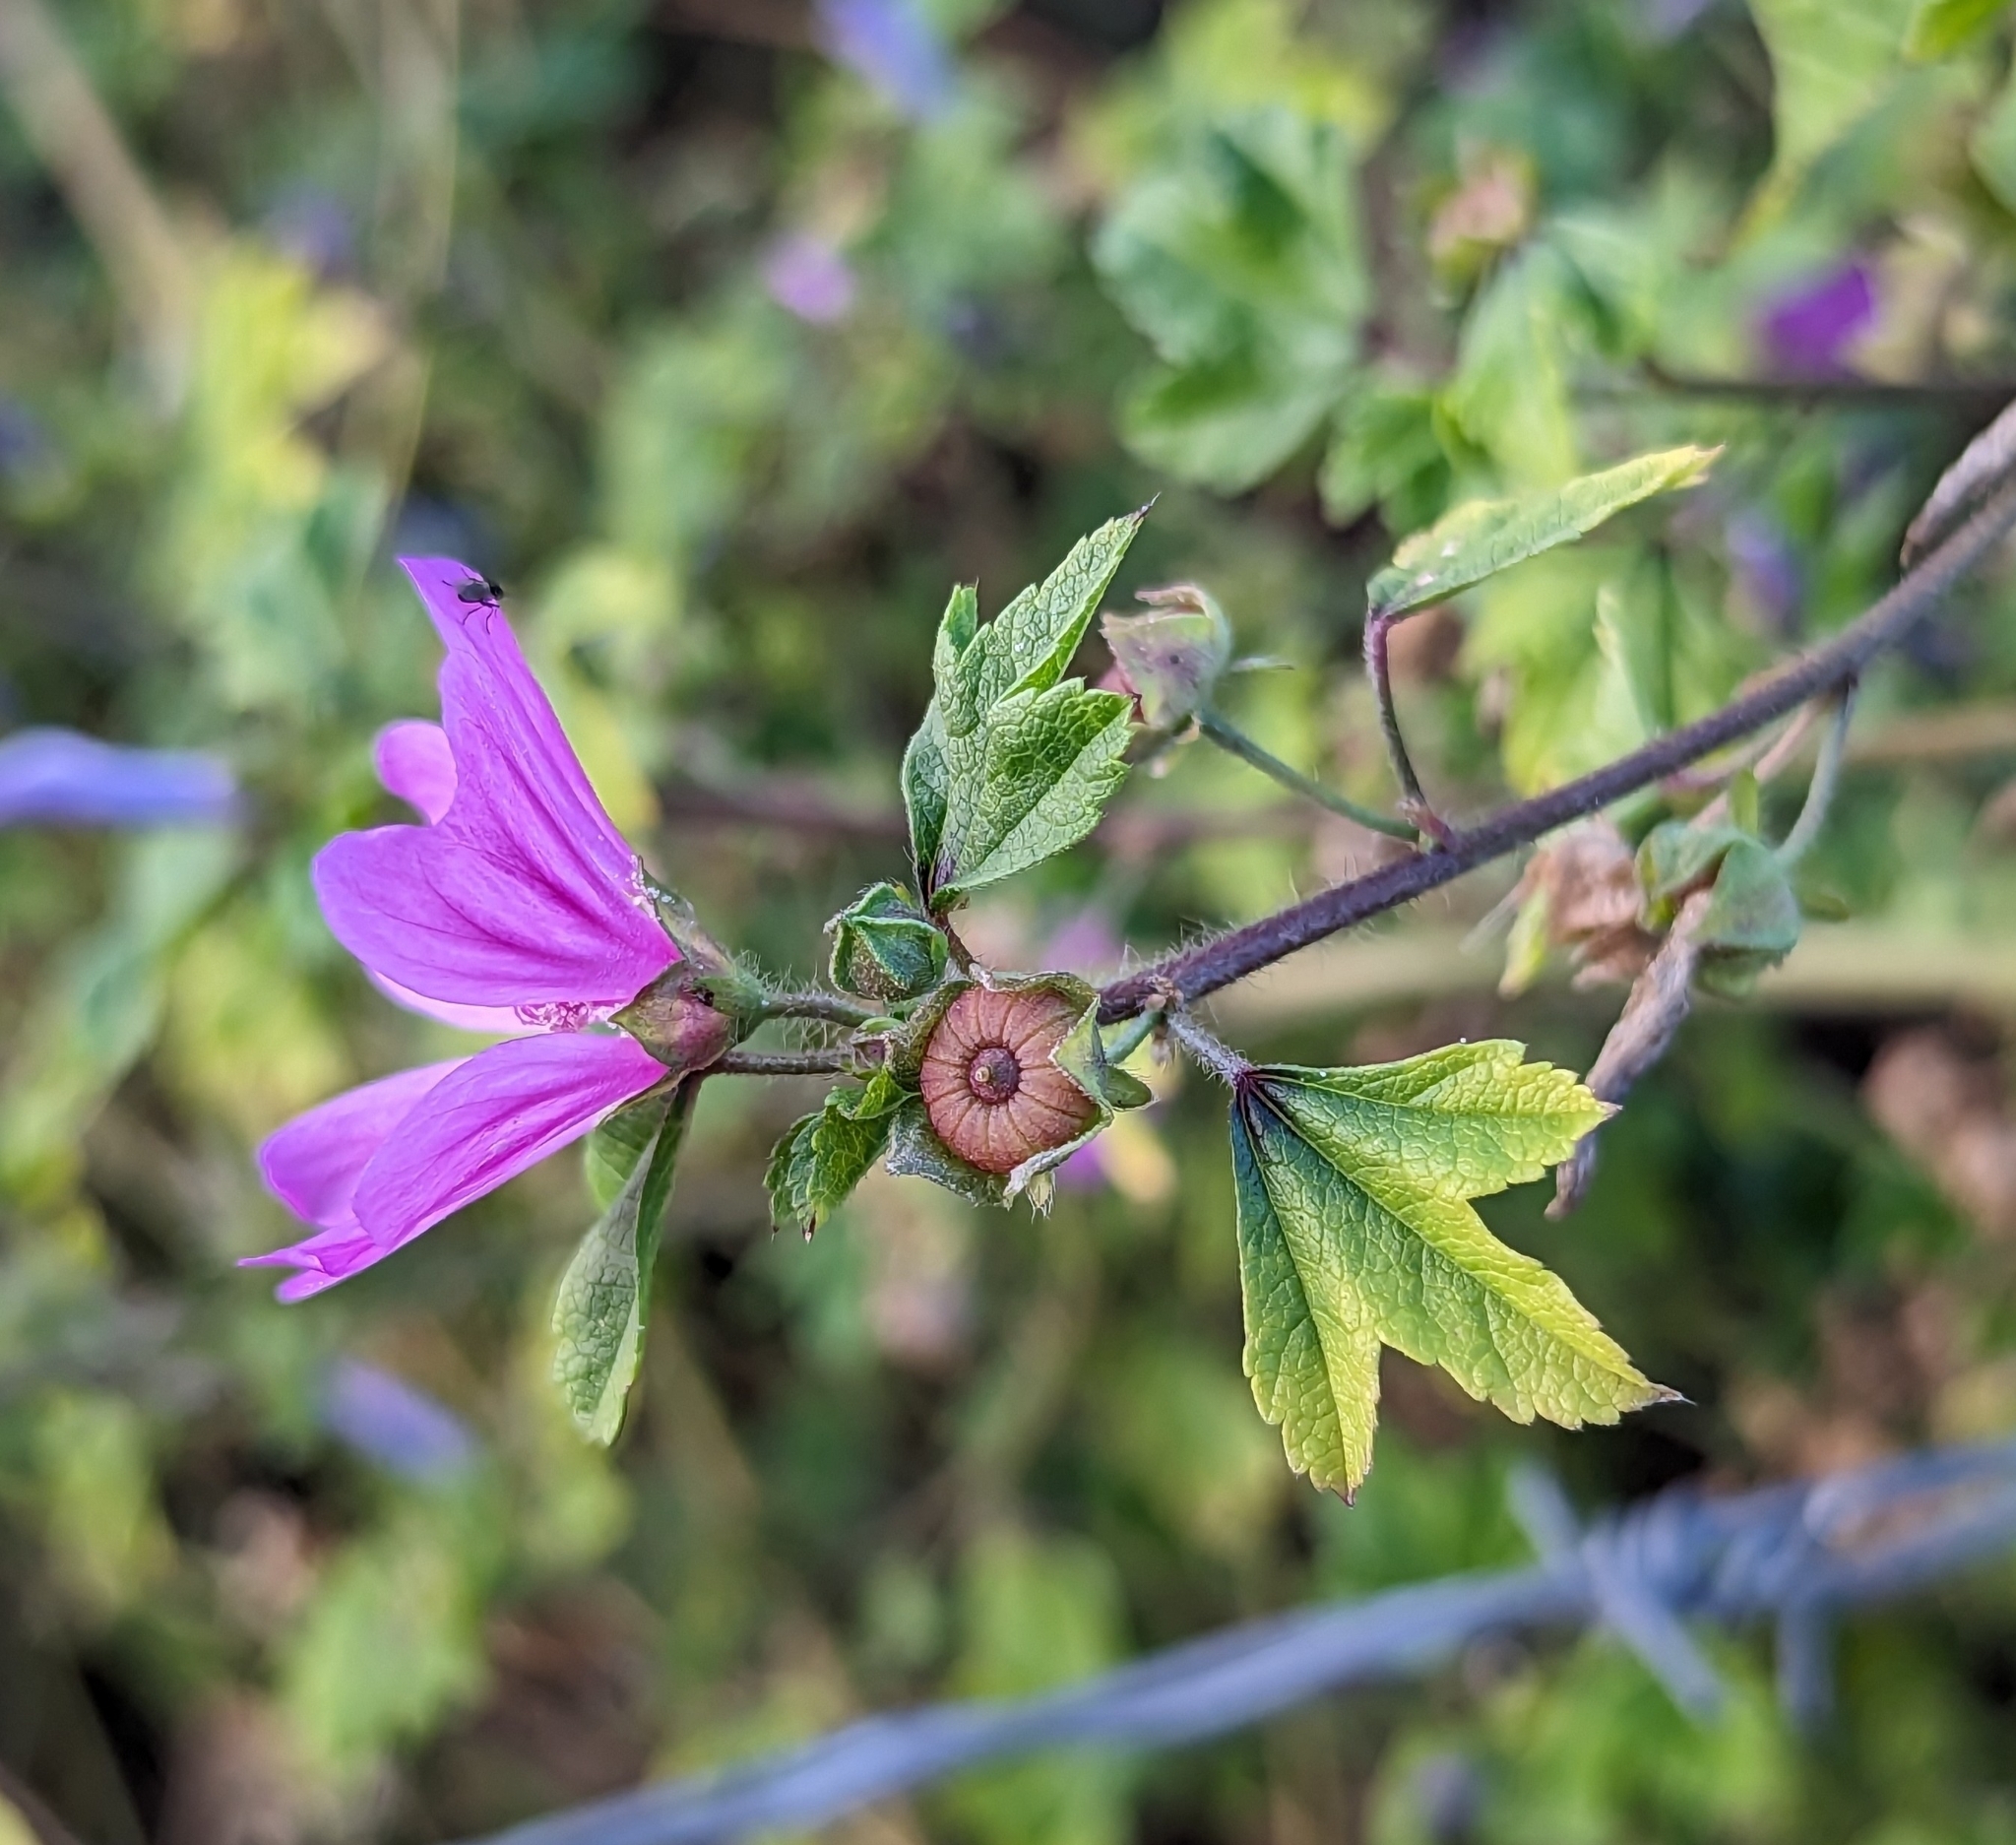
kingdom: Plantae
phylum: Tracheophyta
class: Magnoliopsida
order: Malvales
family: Malvaceae
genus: Malva
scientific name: Malva sylvestris
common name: Common mallow
